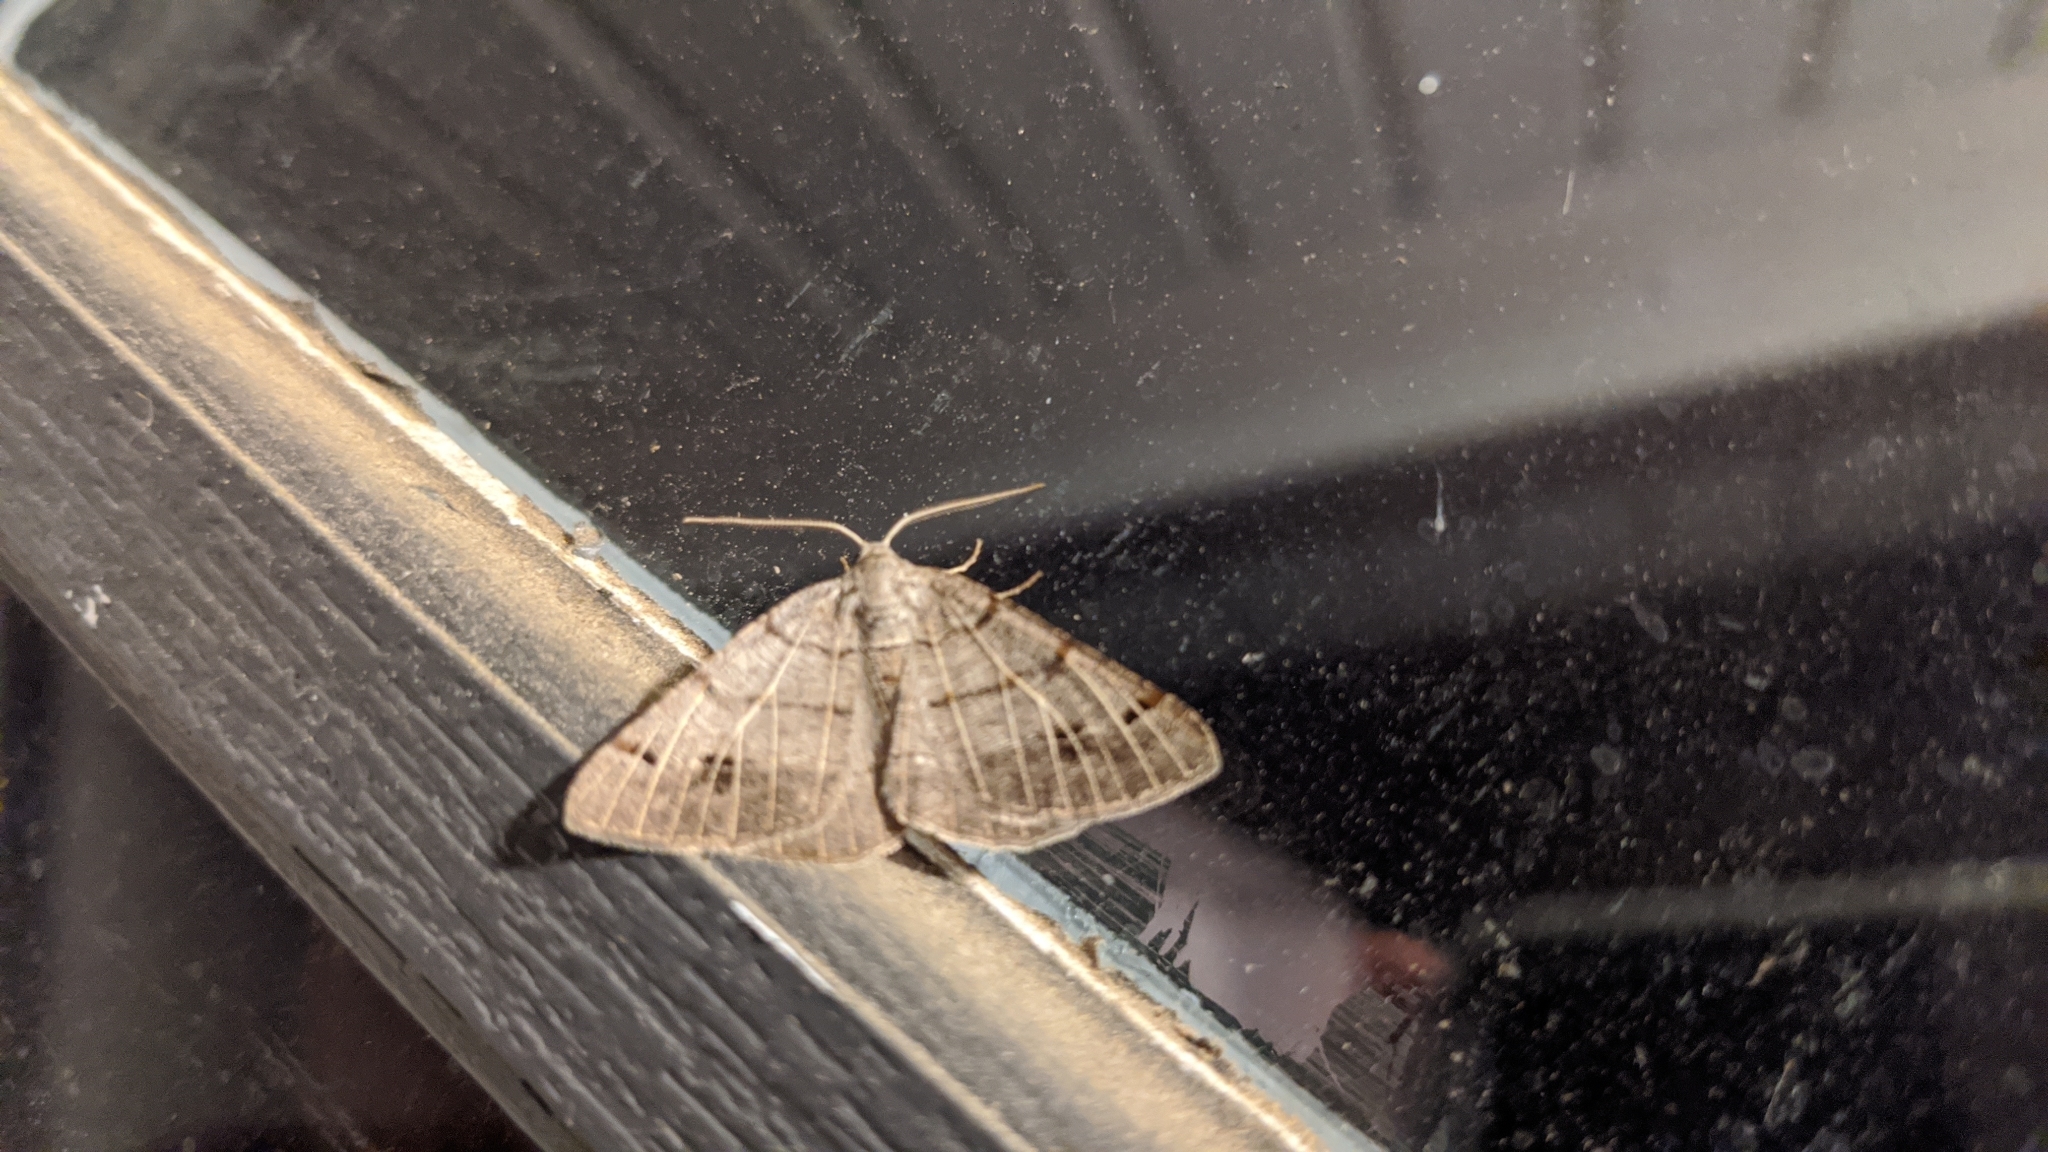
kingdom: Animalia
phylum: Arthropoda
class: Insecta
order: Lepidoptera
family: Geometridae
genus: Isturgia
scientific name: Isturgia dislocaria
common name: Pale-viened enconista
